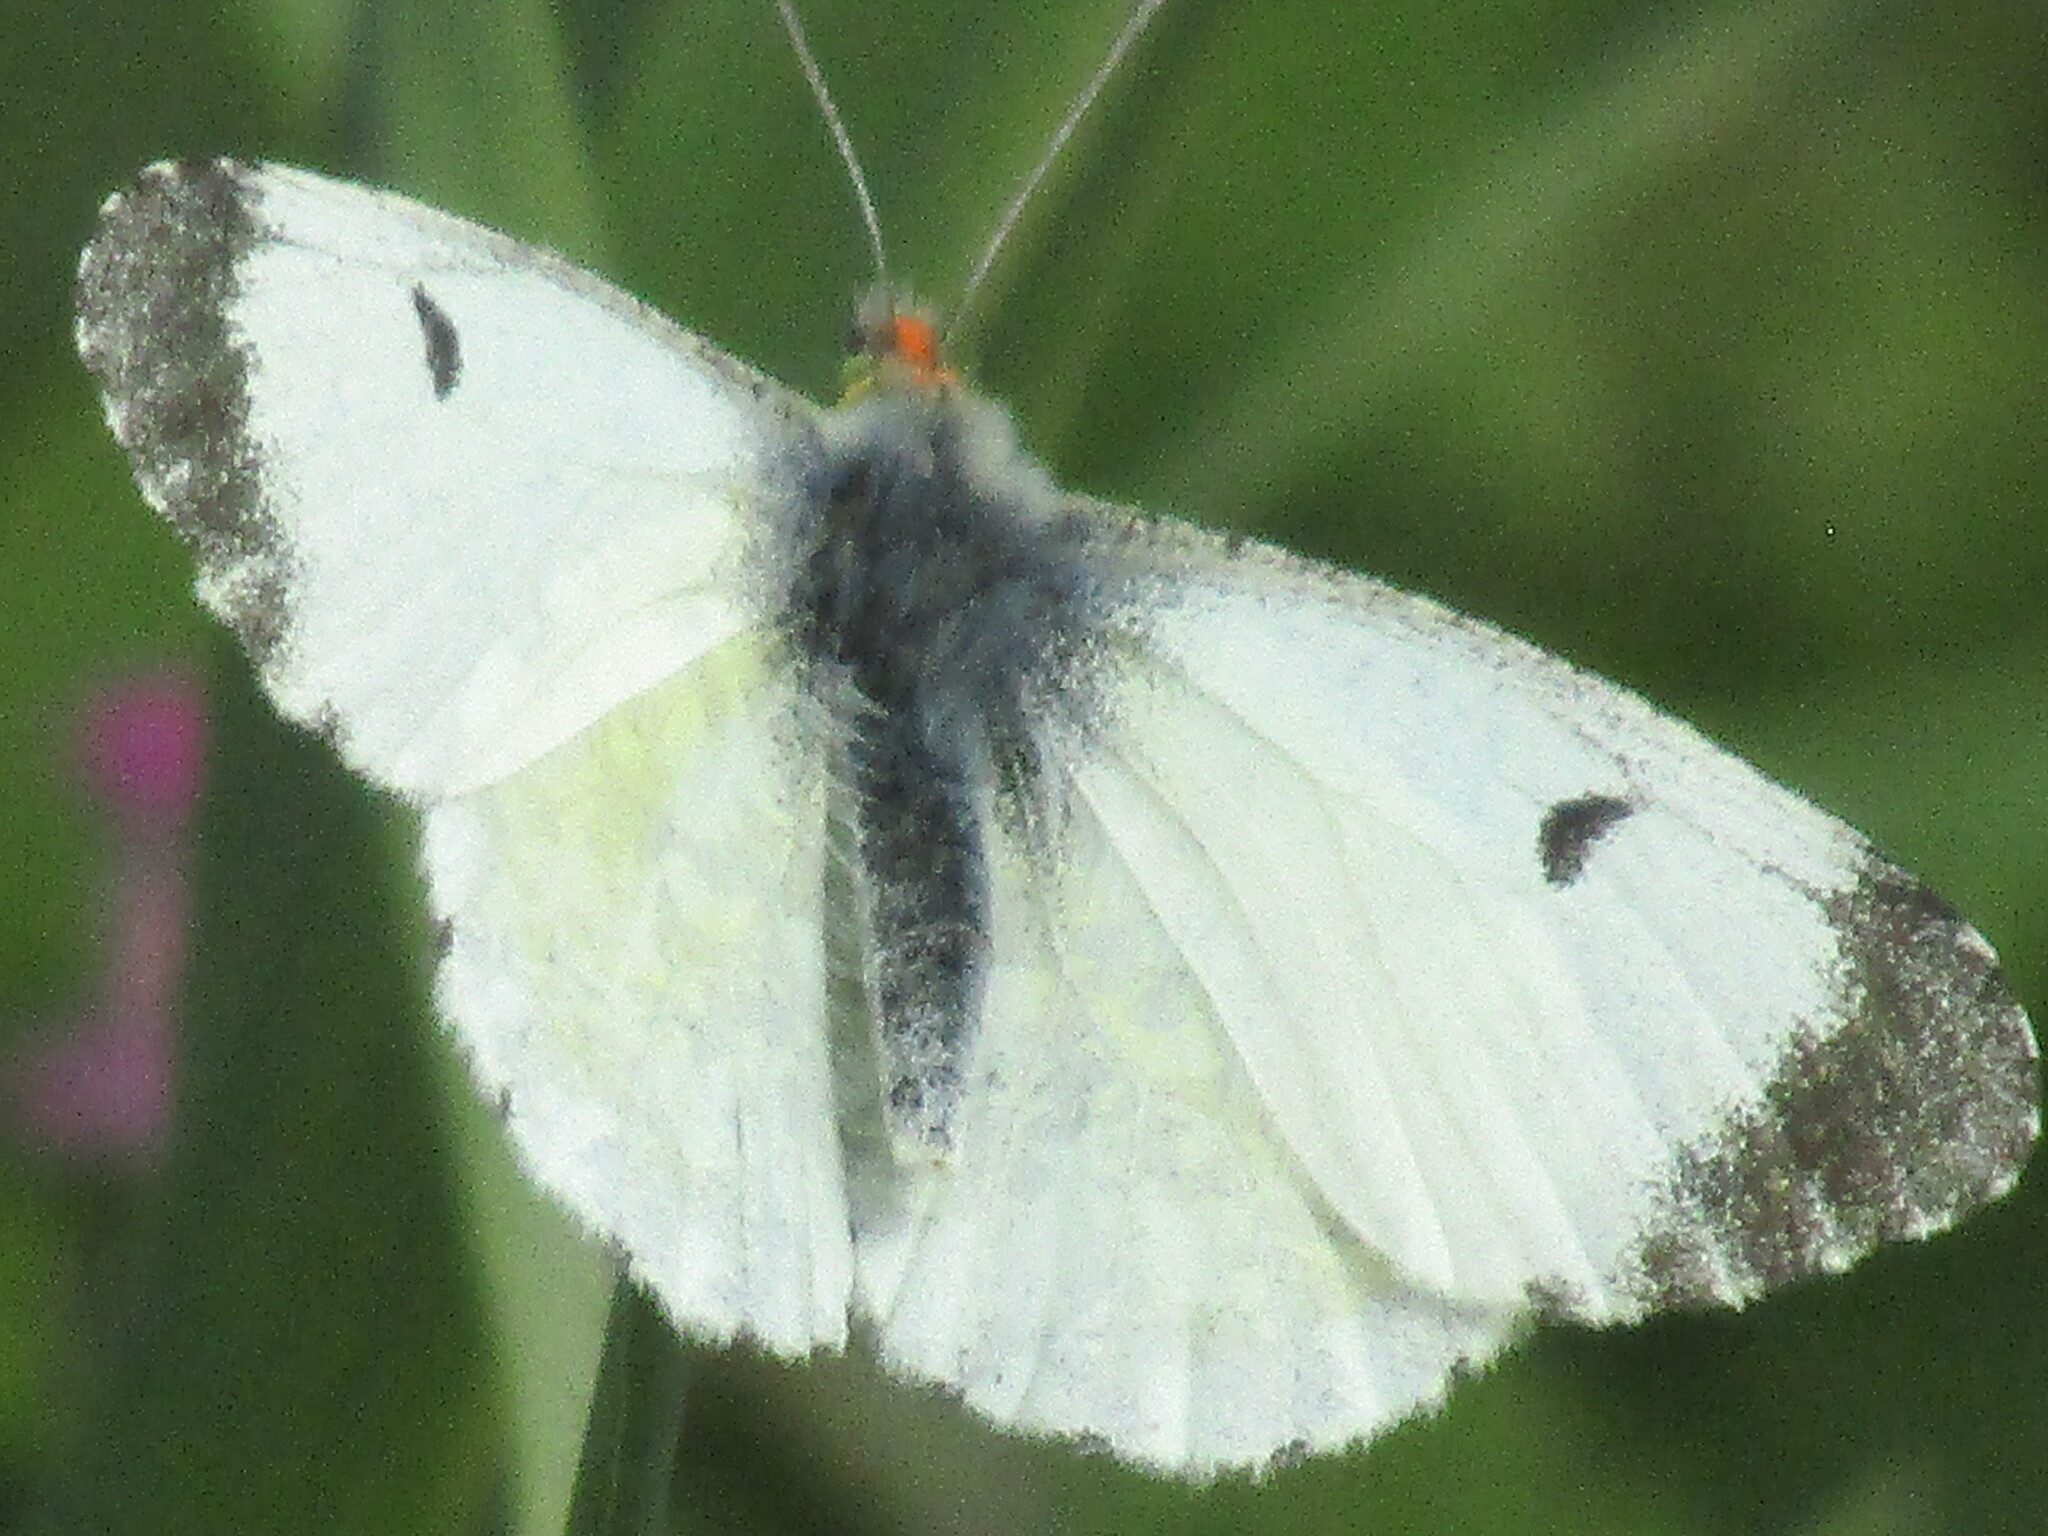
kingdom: Animalia
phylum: Arthropoda
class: Insecta
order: Lepidoptera
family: Pieridae
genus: Anthocharis
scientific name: Anthocharis cardamines
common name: Orange-tip
